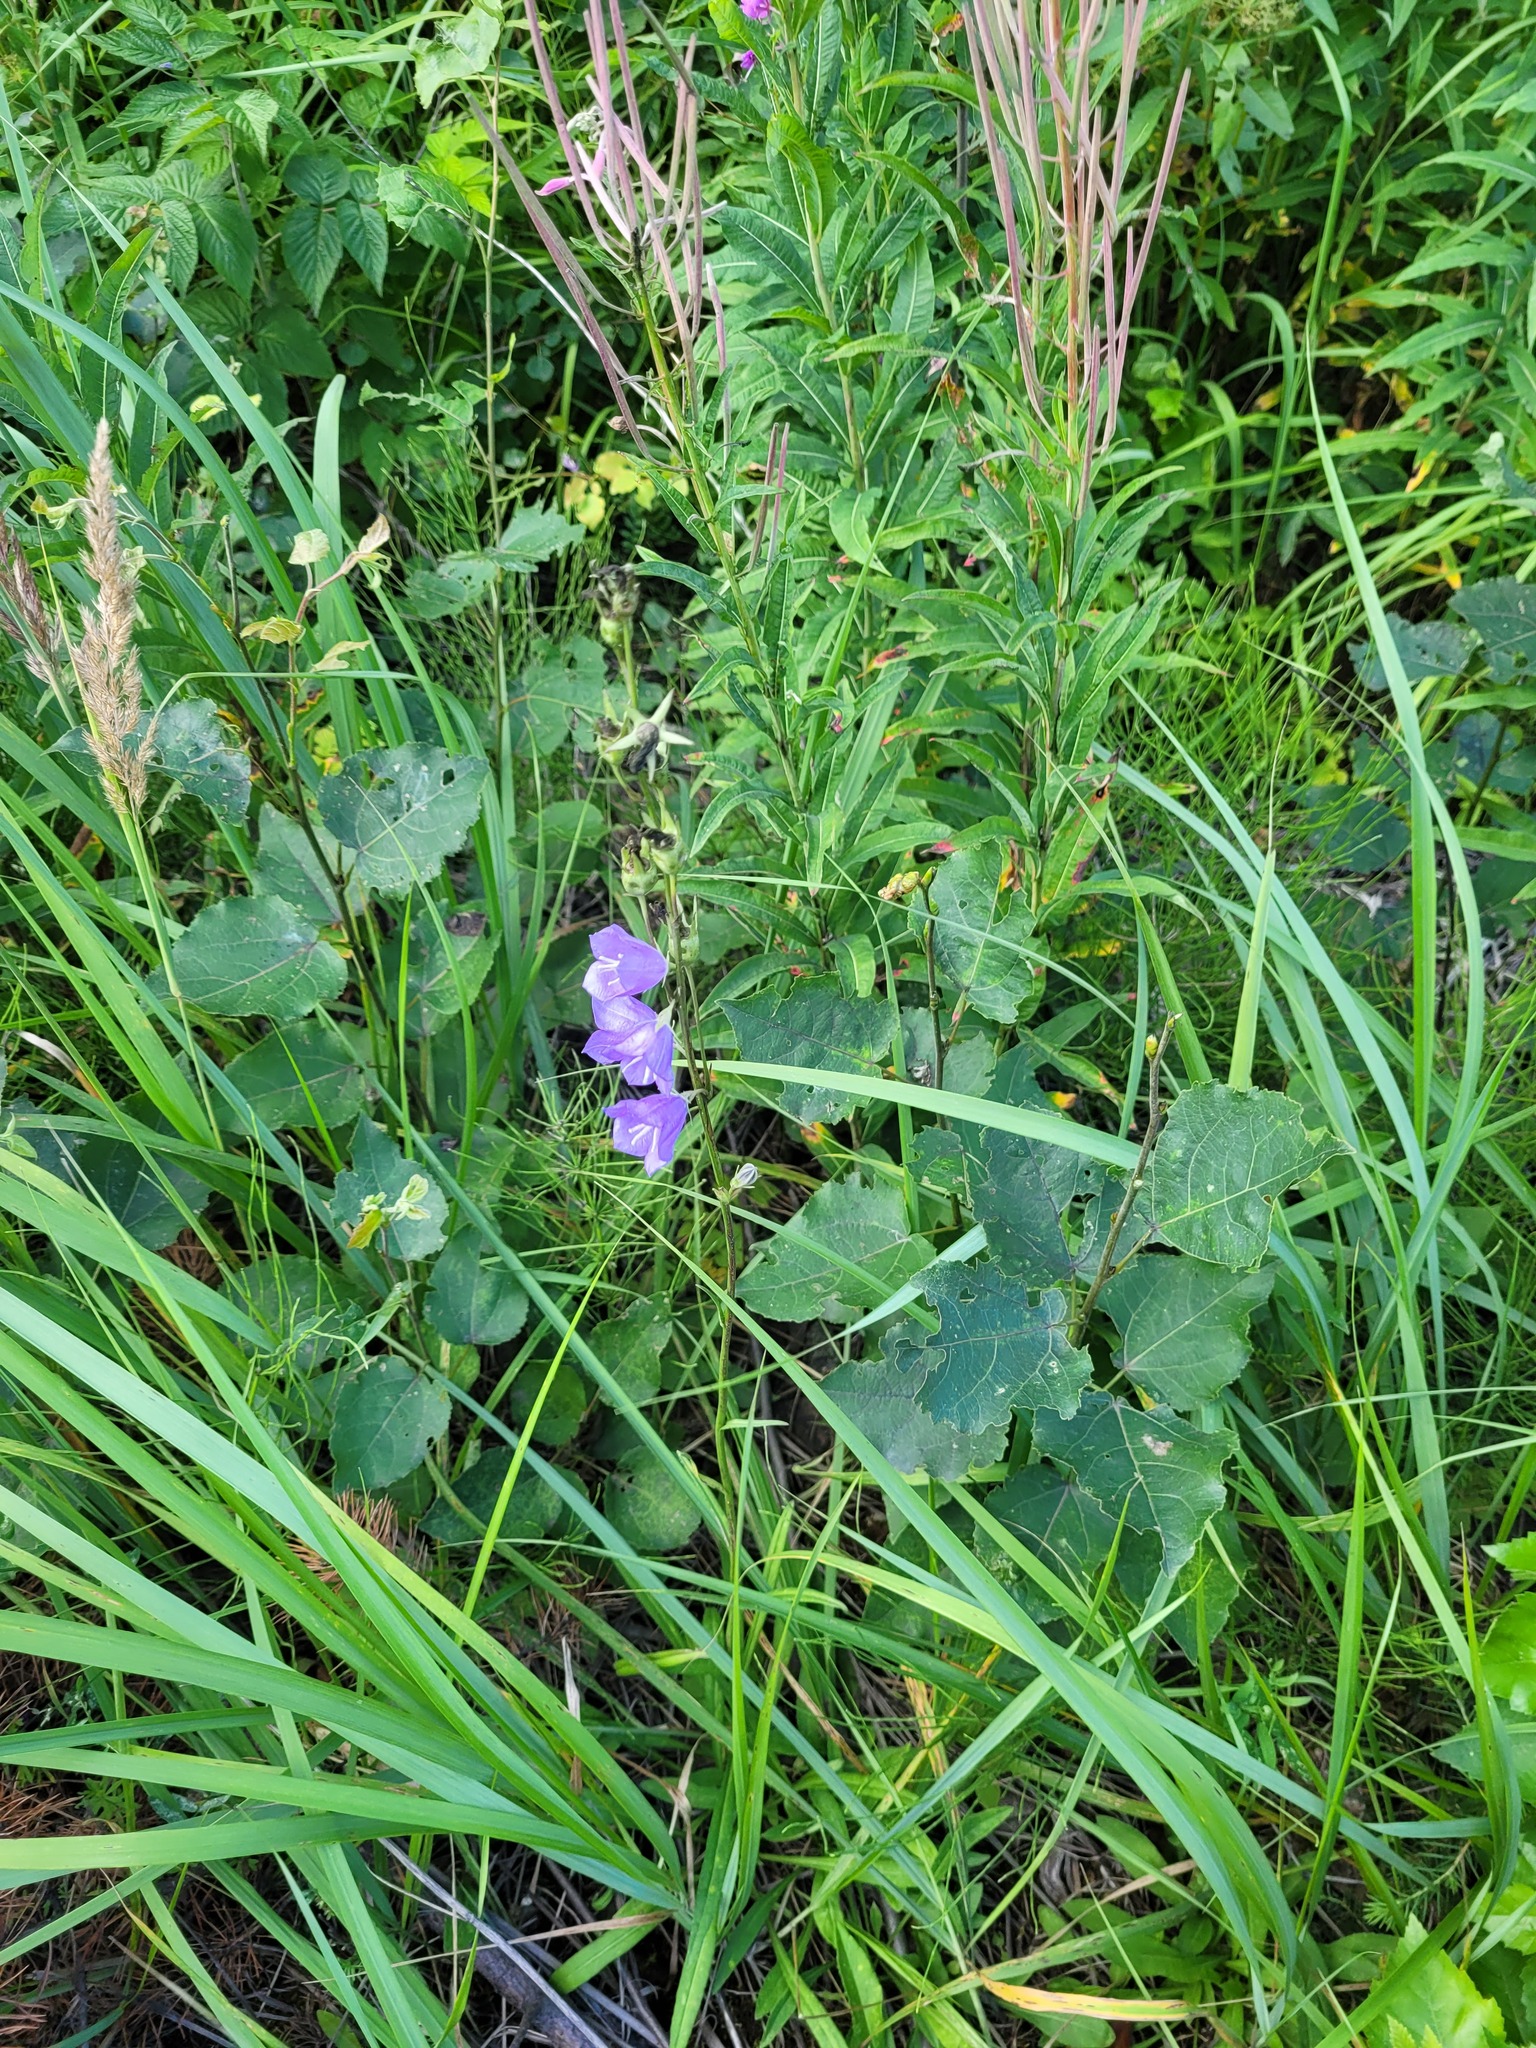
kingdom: Plantae
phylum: Tracheophyta
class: Magnoliopsida
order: Asterales
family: Campanulaceae
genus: Campanula
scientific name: Campanula persicifolia
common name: Peach-leaved bellflower
